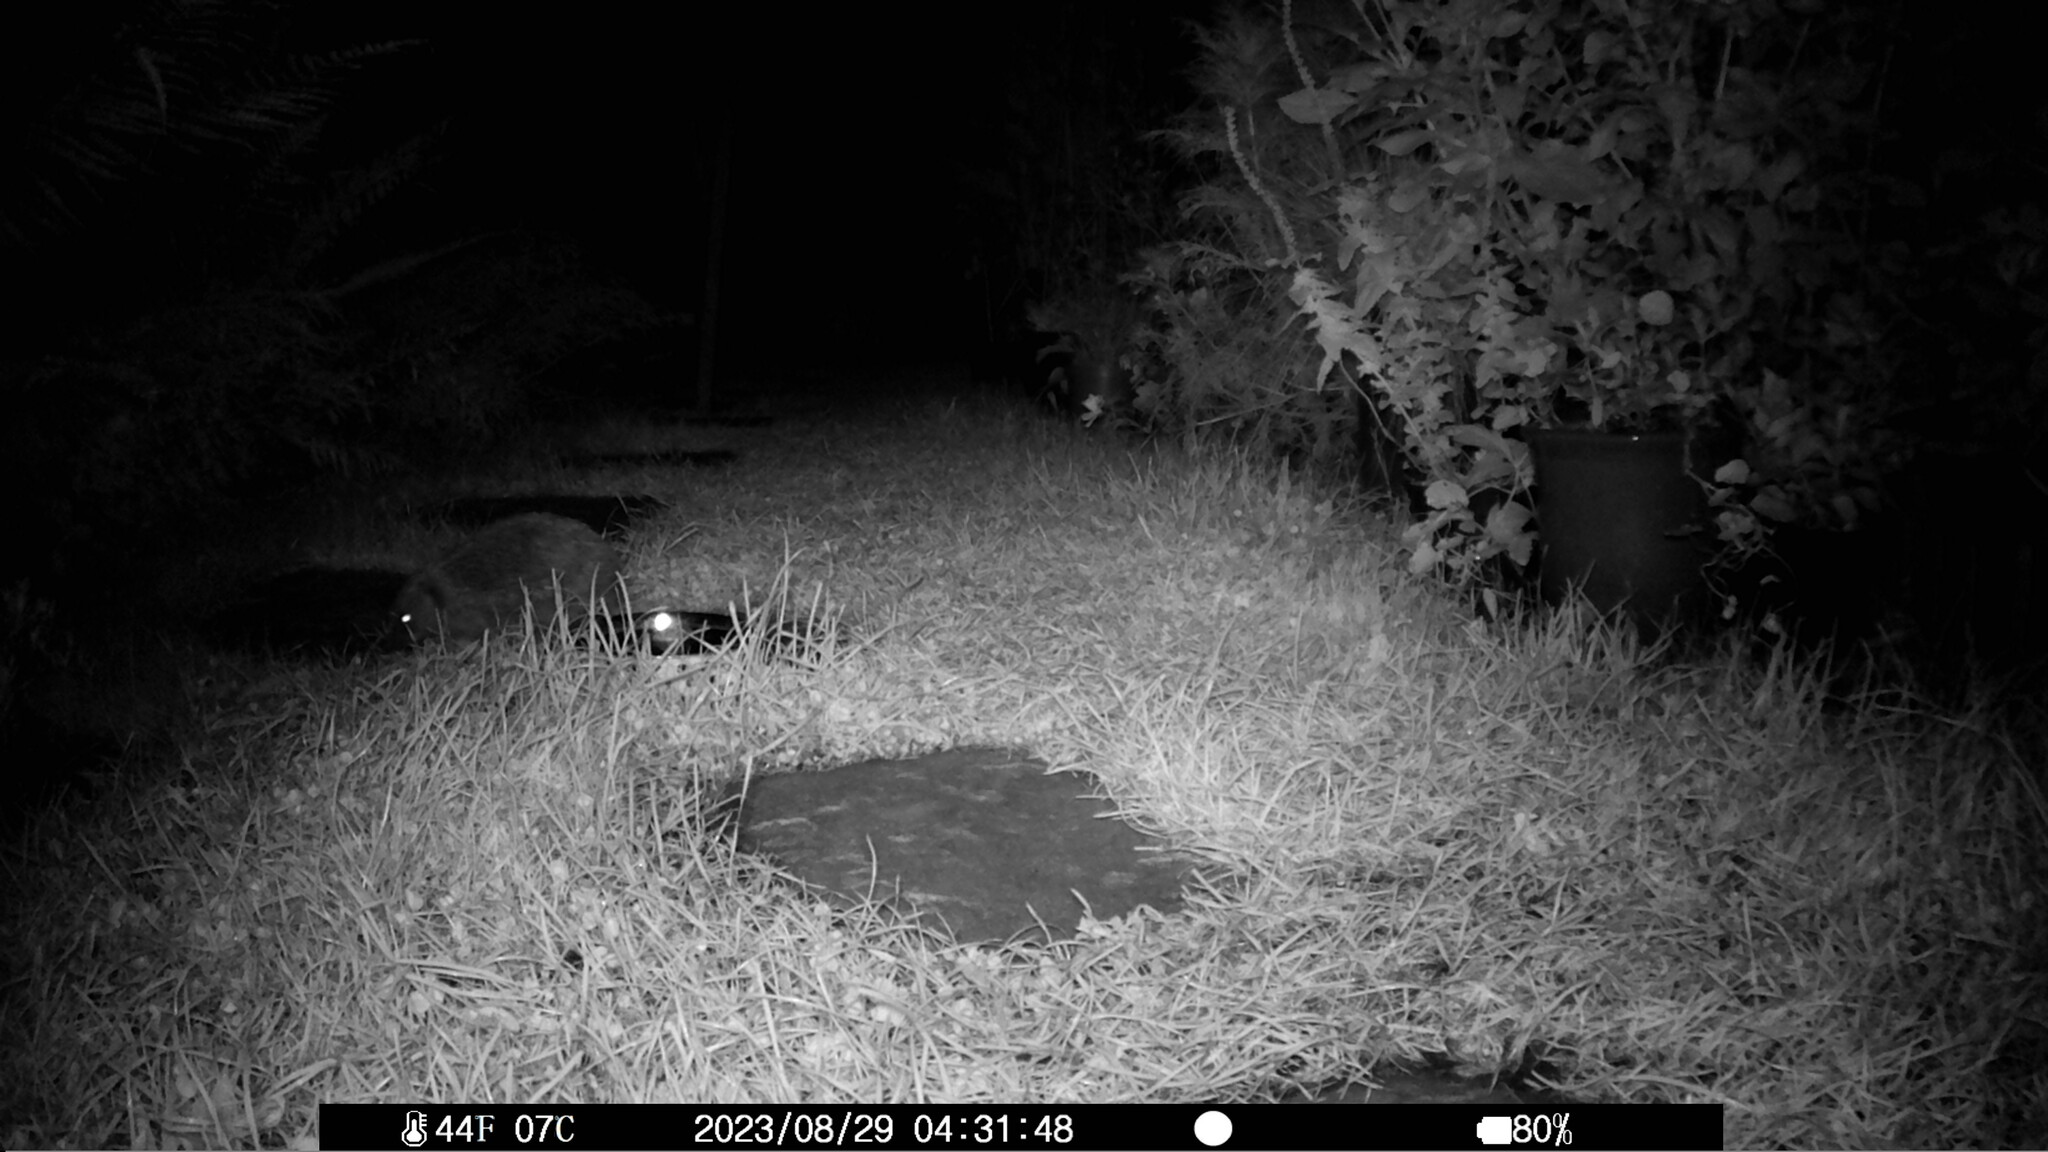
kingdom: Animalia
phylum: Chordata
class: Mammalia
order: Erinaceomorpha
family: Erinaceidae
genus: Erinaceus
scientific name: Erinaceus europaeus
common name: West european hedgehog
